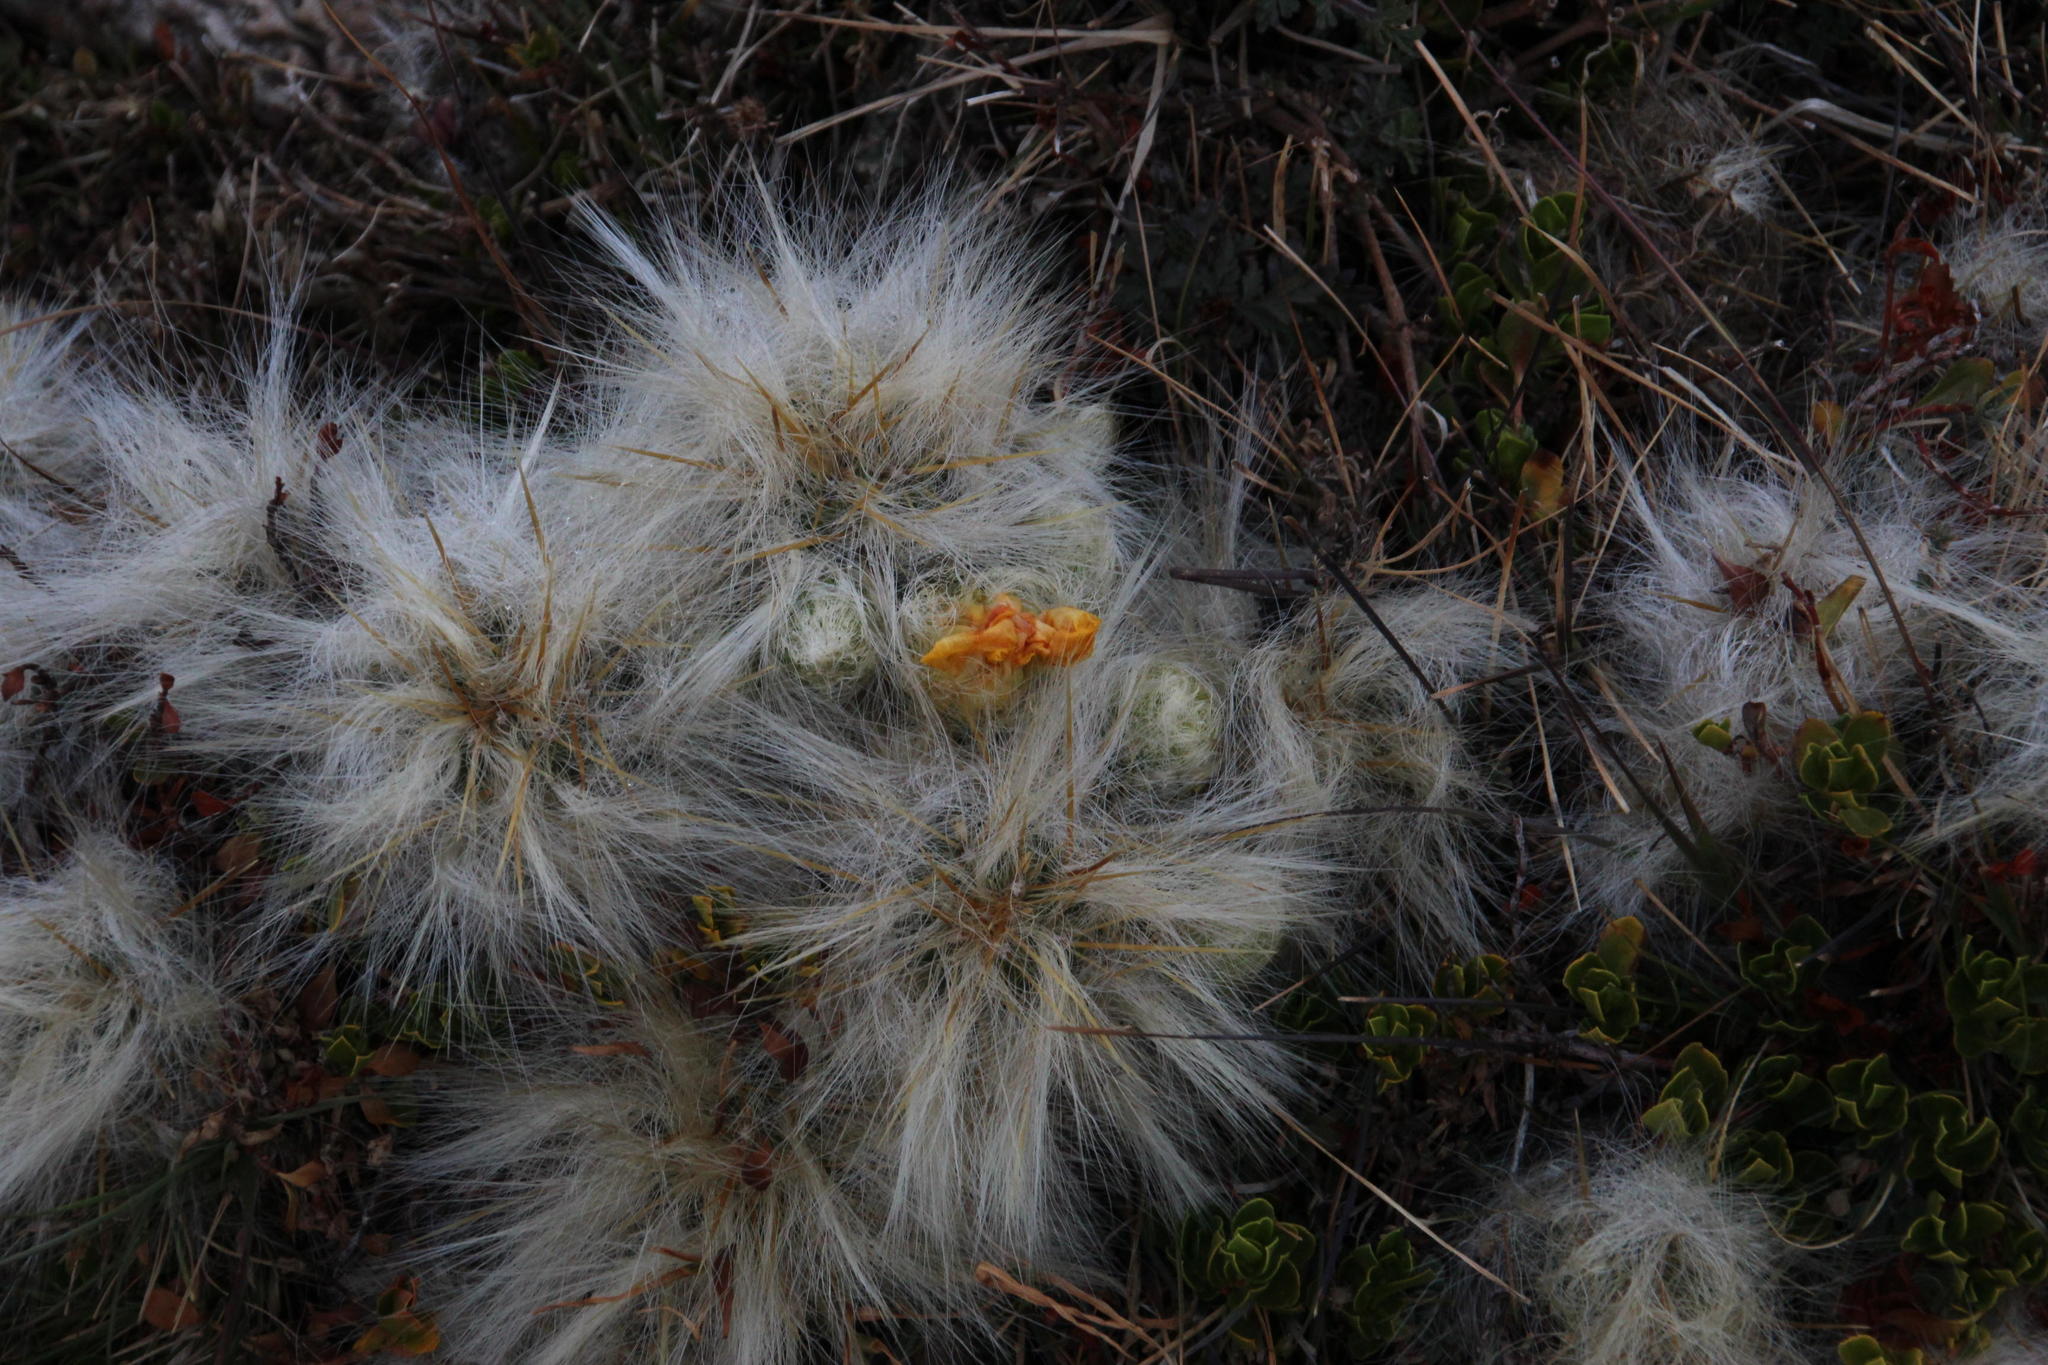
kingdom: Plantae
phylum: Tracheophyta
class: Magnoliopsida
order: Caryophyllales
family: Cactaceae
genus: Austrocylindropuntia
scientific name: Austrocylindropuntia floccosa
